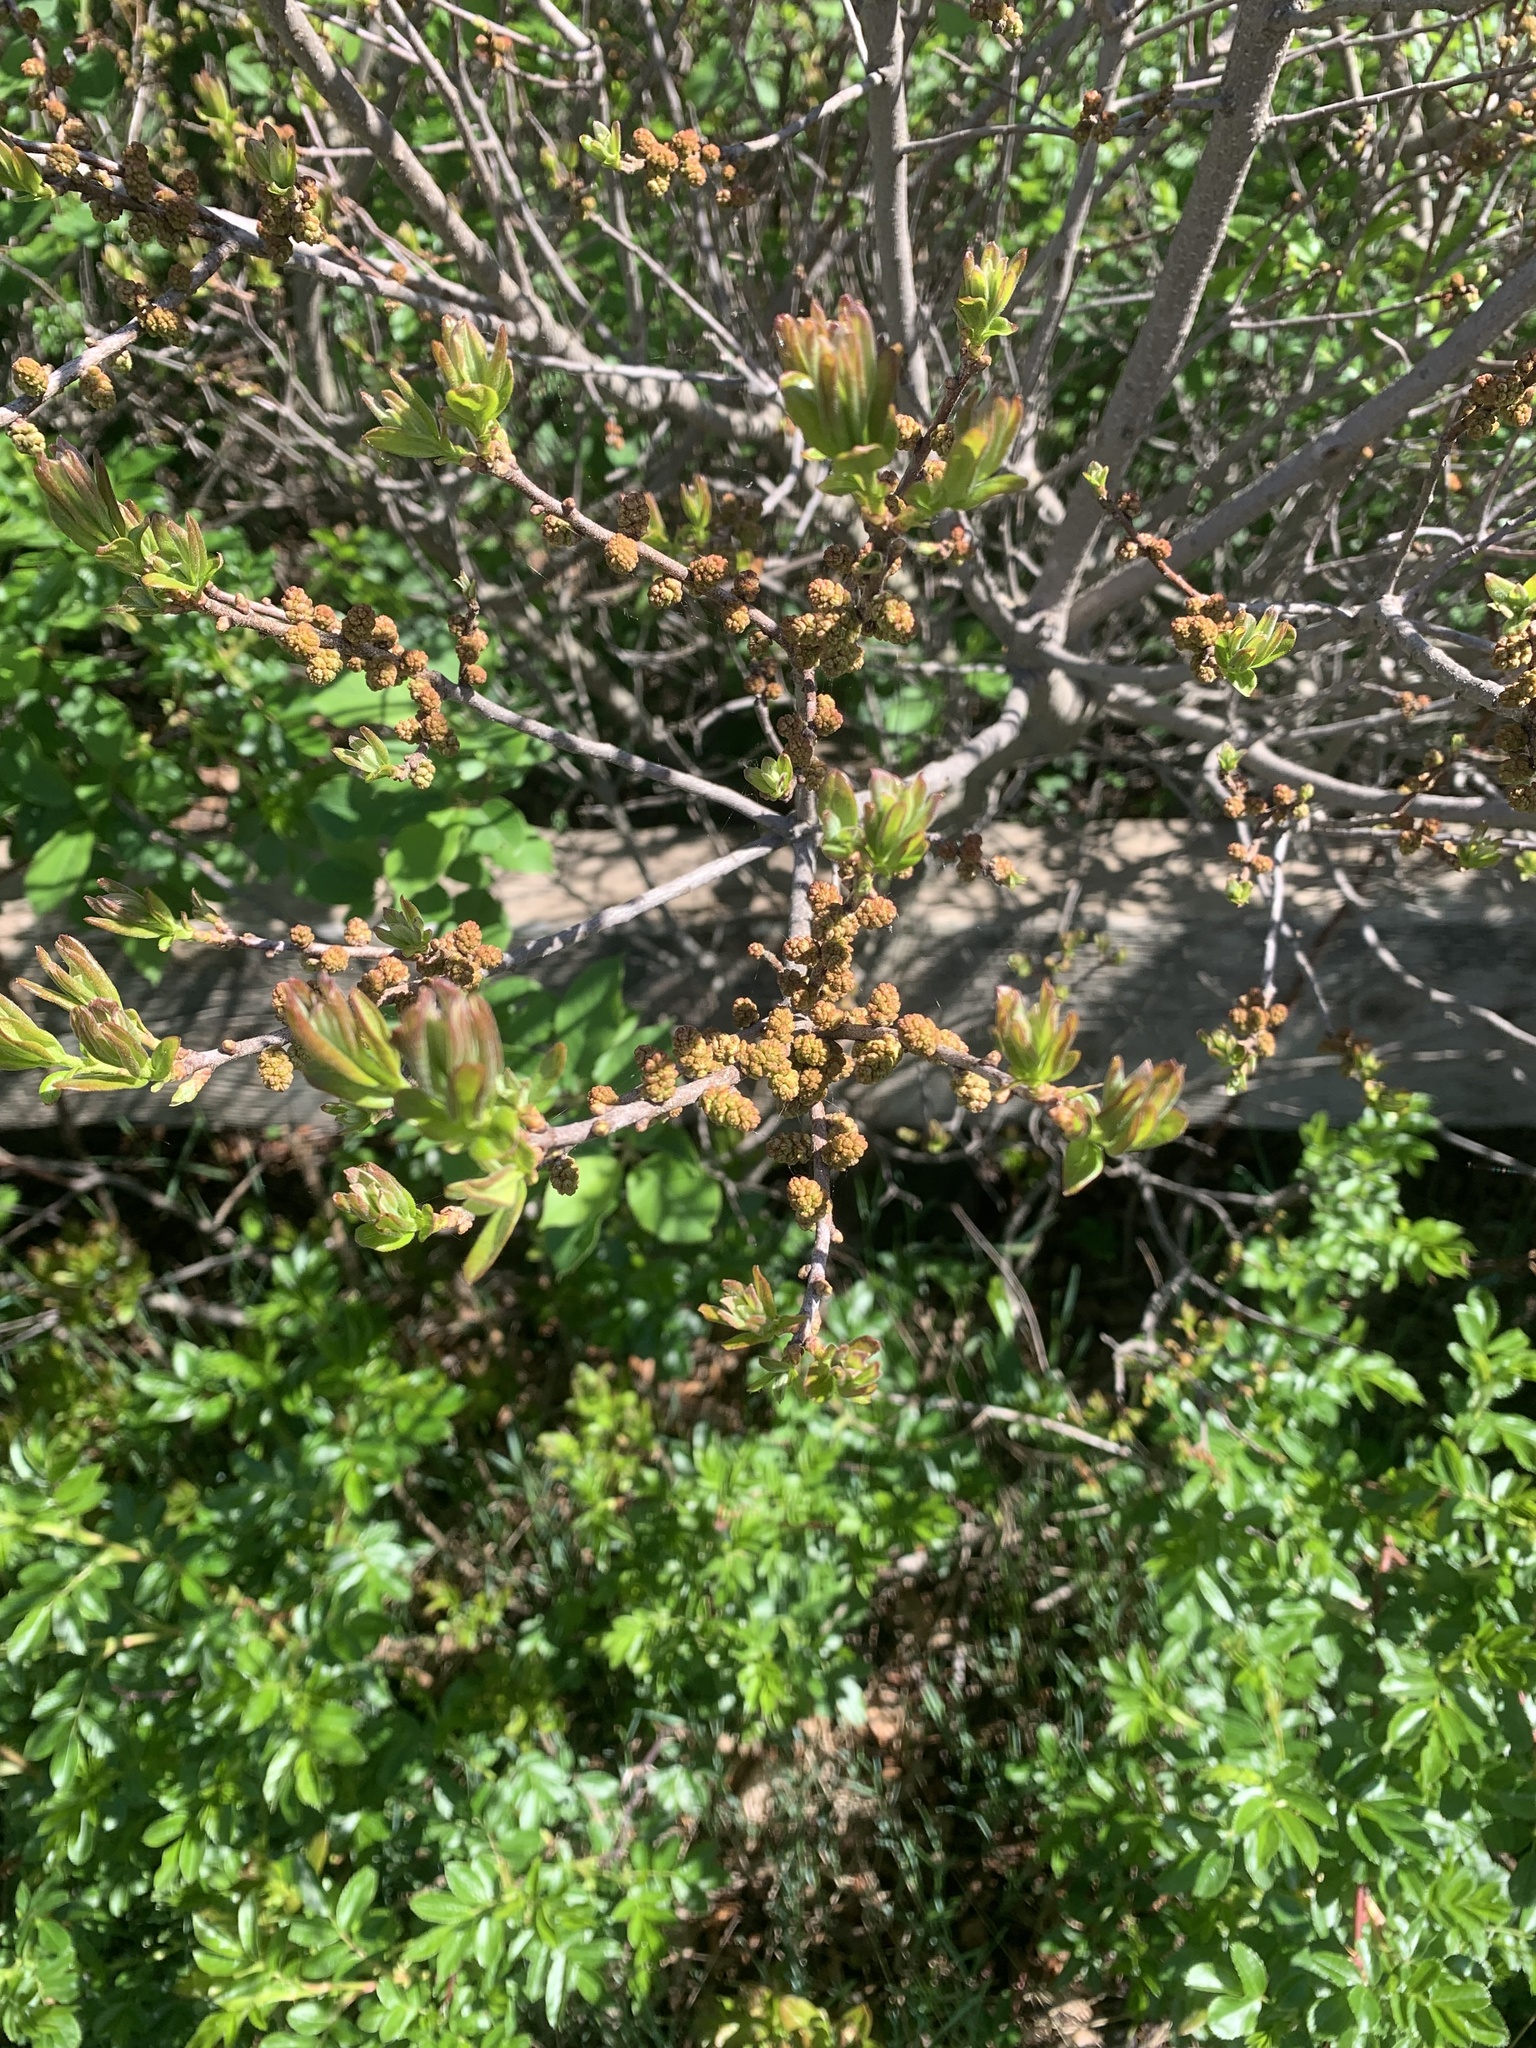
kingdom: Plantae
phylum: Tracheophyta
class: Magnoliopsida
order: Fagales
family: Myricaceae
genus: Morella
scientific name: Morella pensylvanica
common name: Northern bayberry
